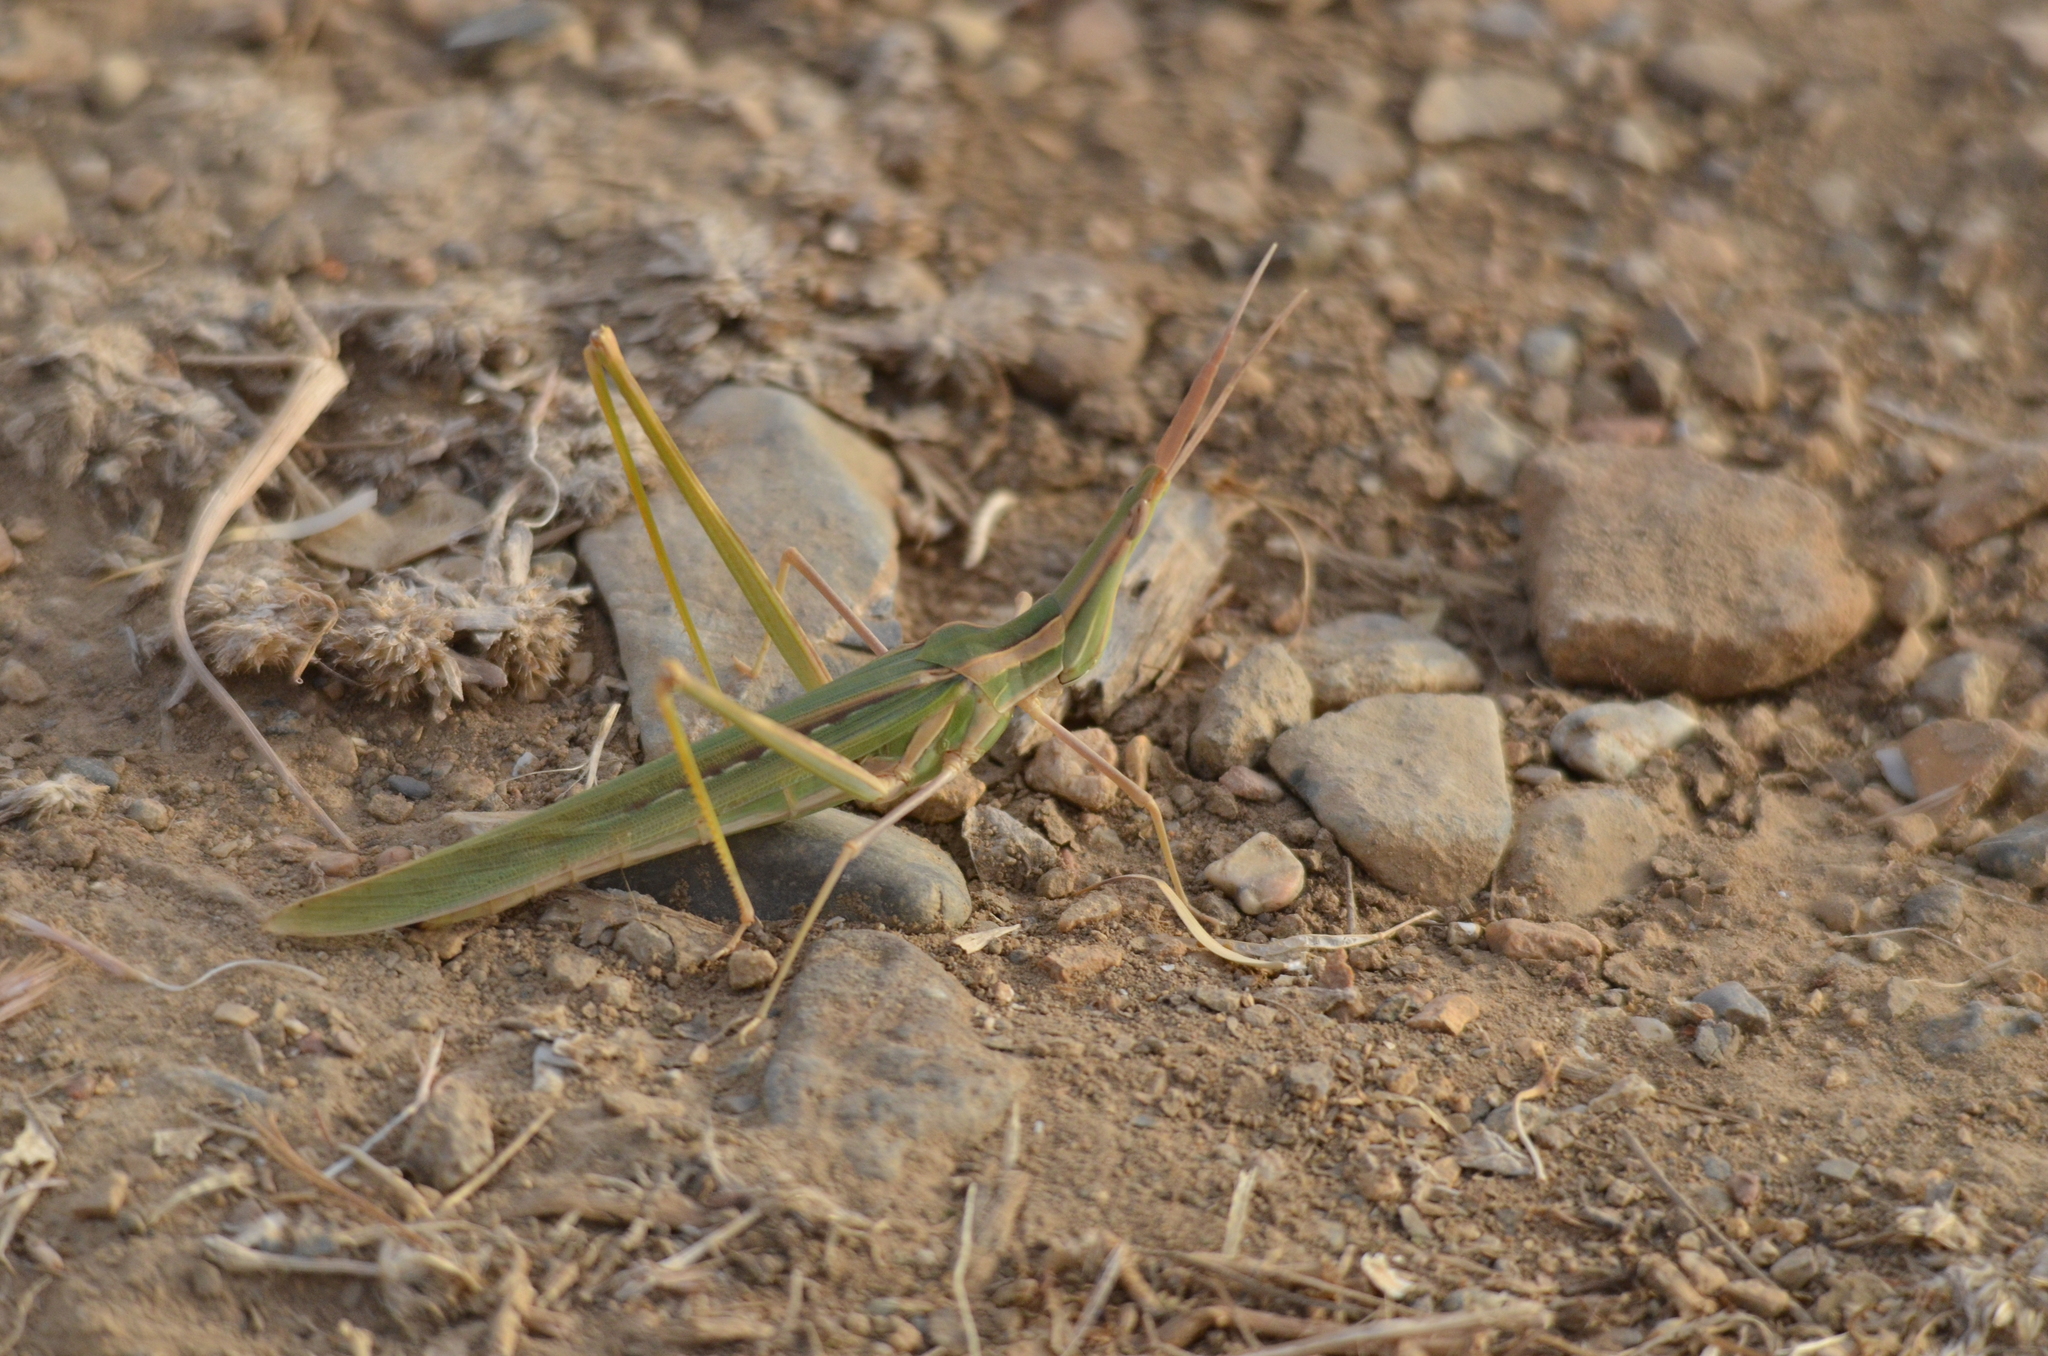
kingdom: Animalia
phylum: Arthropoda
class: Insecta
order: Orthoptera
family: Acrididae
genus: Truxalis
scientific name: Truxalis nasuta
